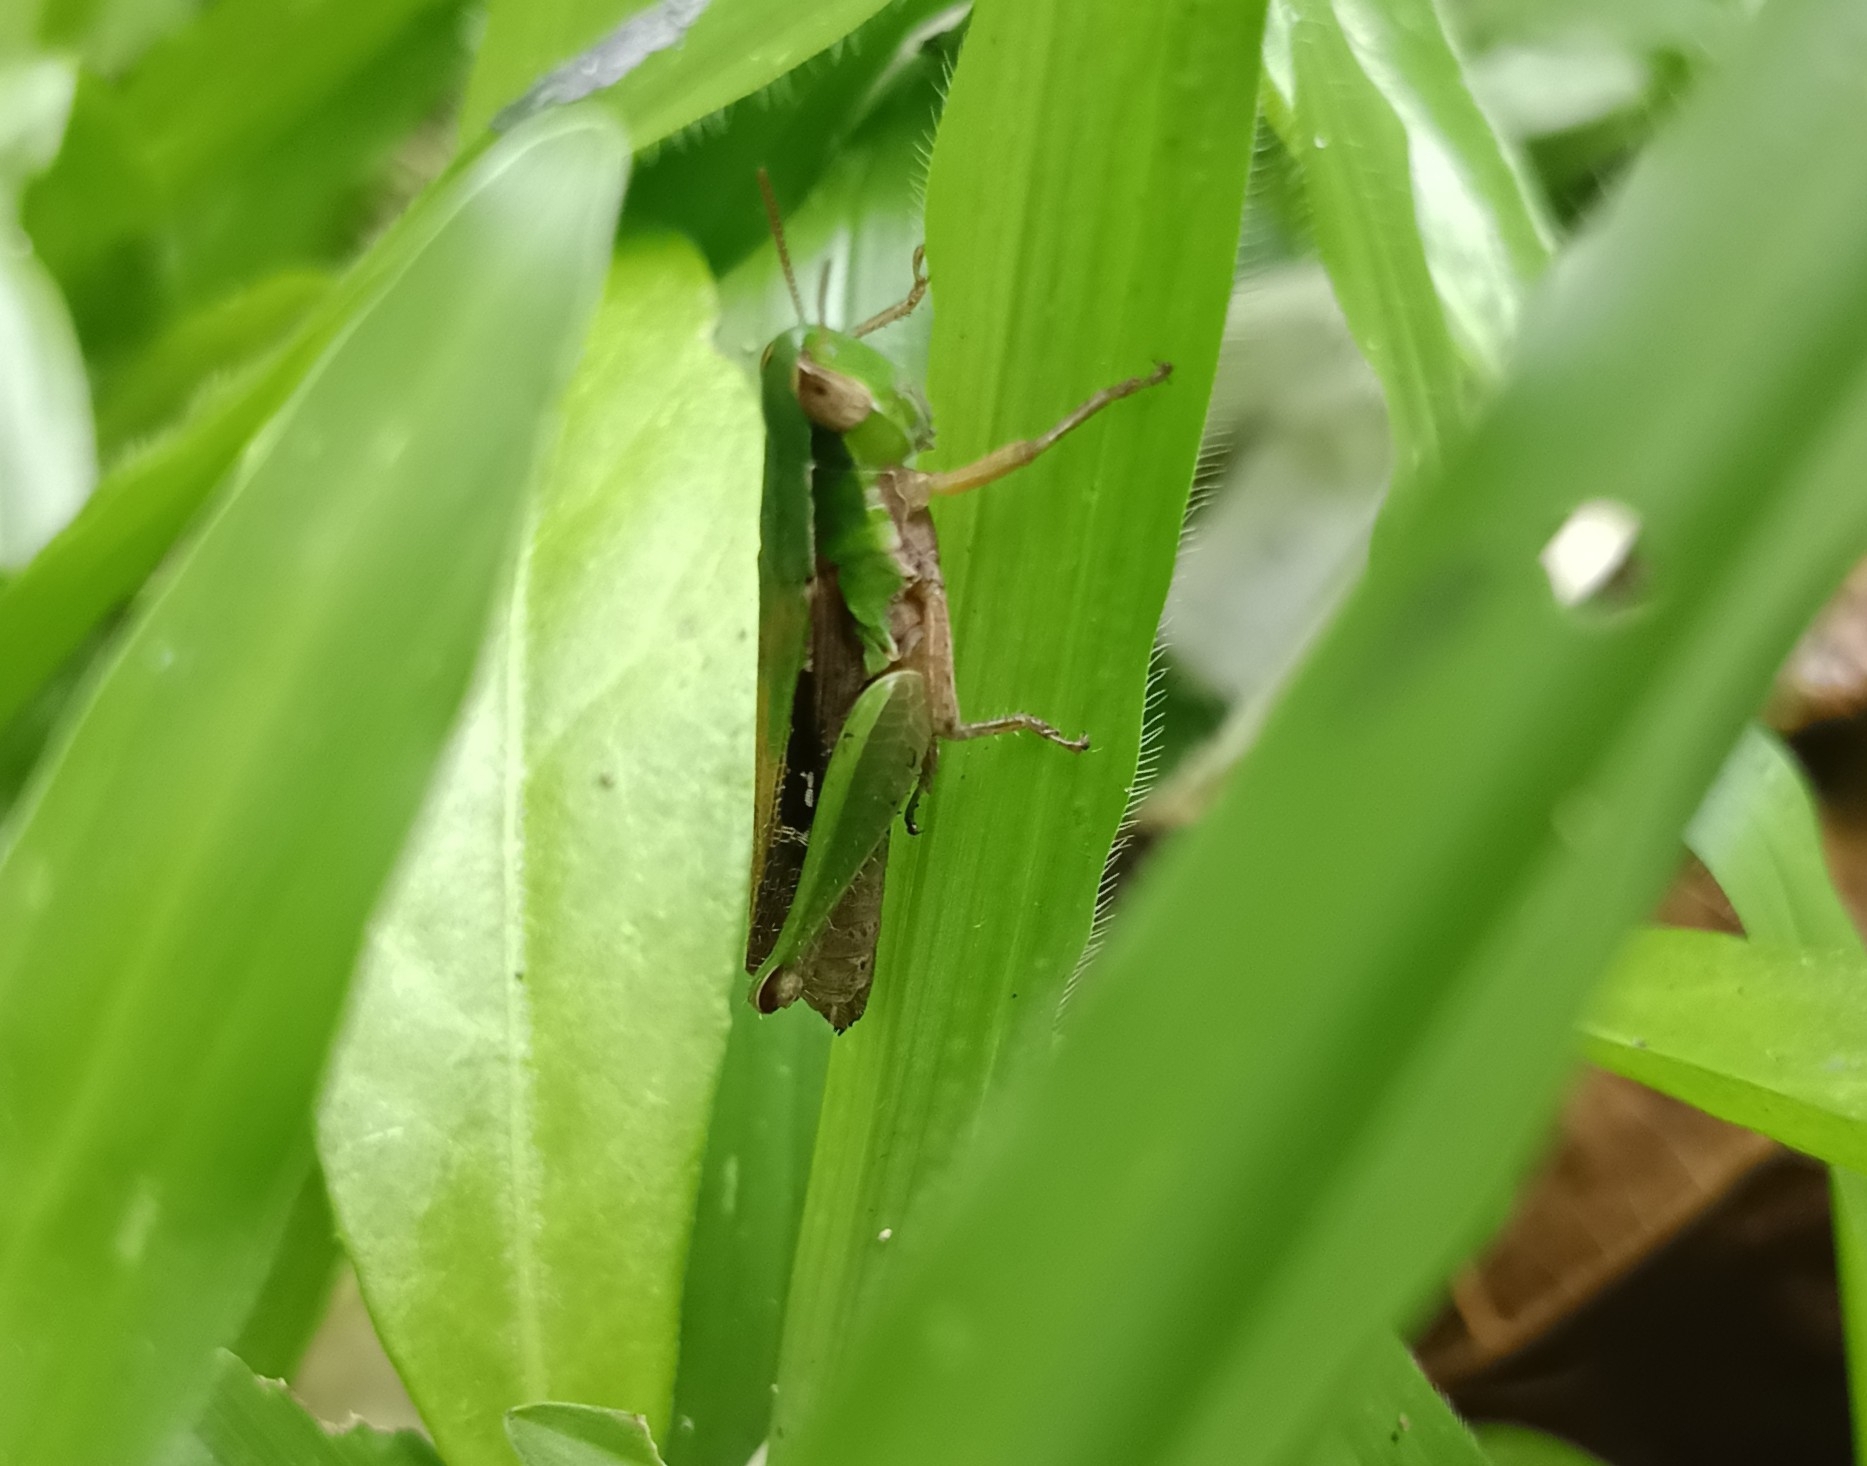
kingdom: Animalia
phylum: Arthropoda
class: Insecta
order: Orthoptera
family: Acrididae
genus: Spathosternum
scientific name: Spathosternum prasiniferum
